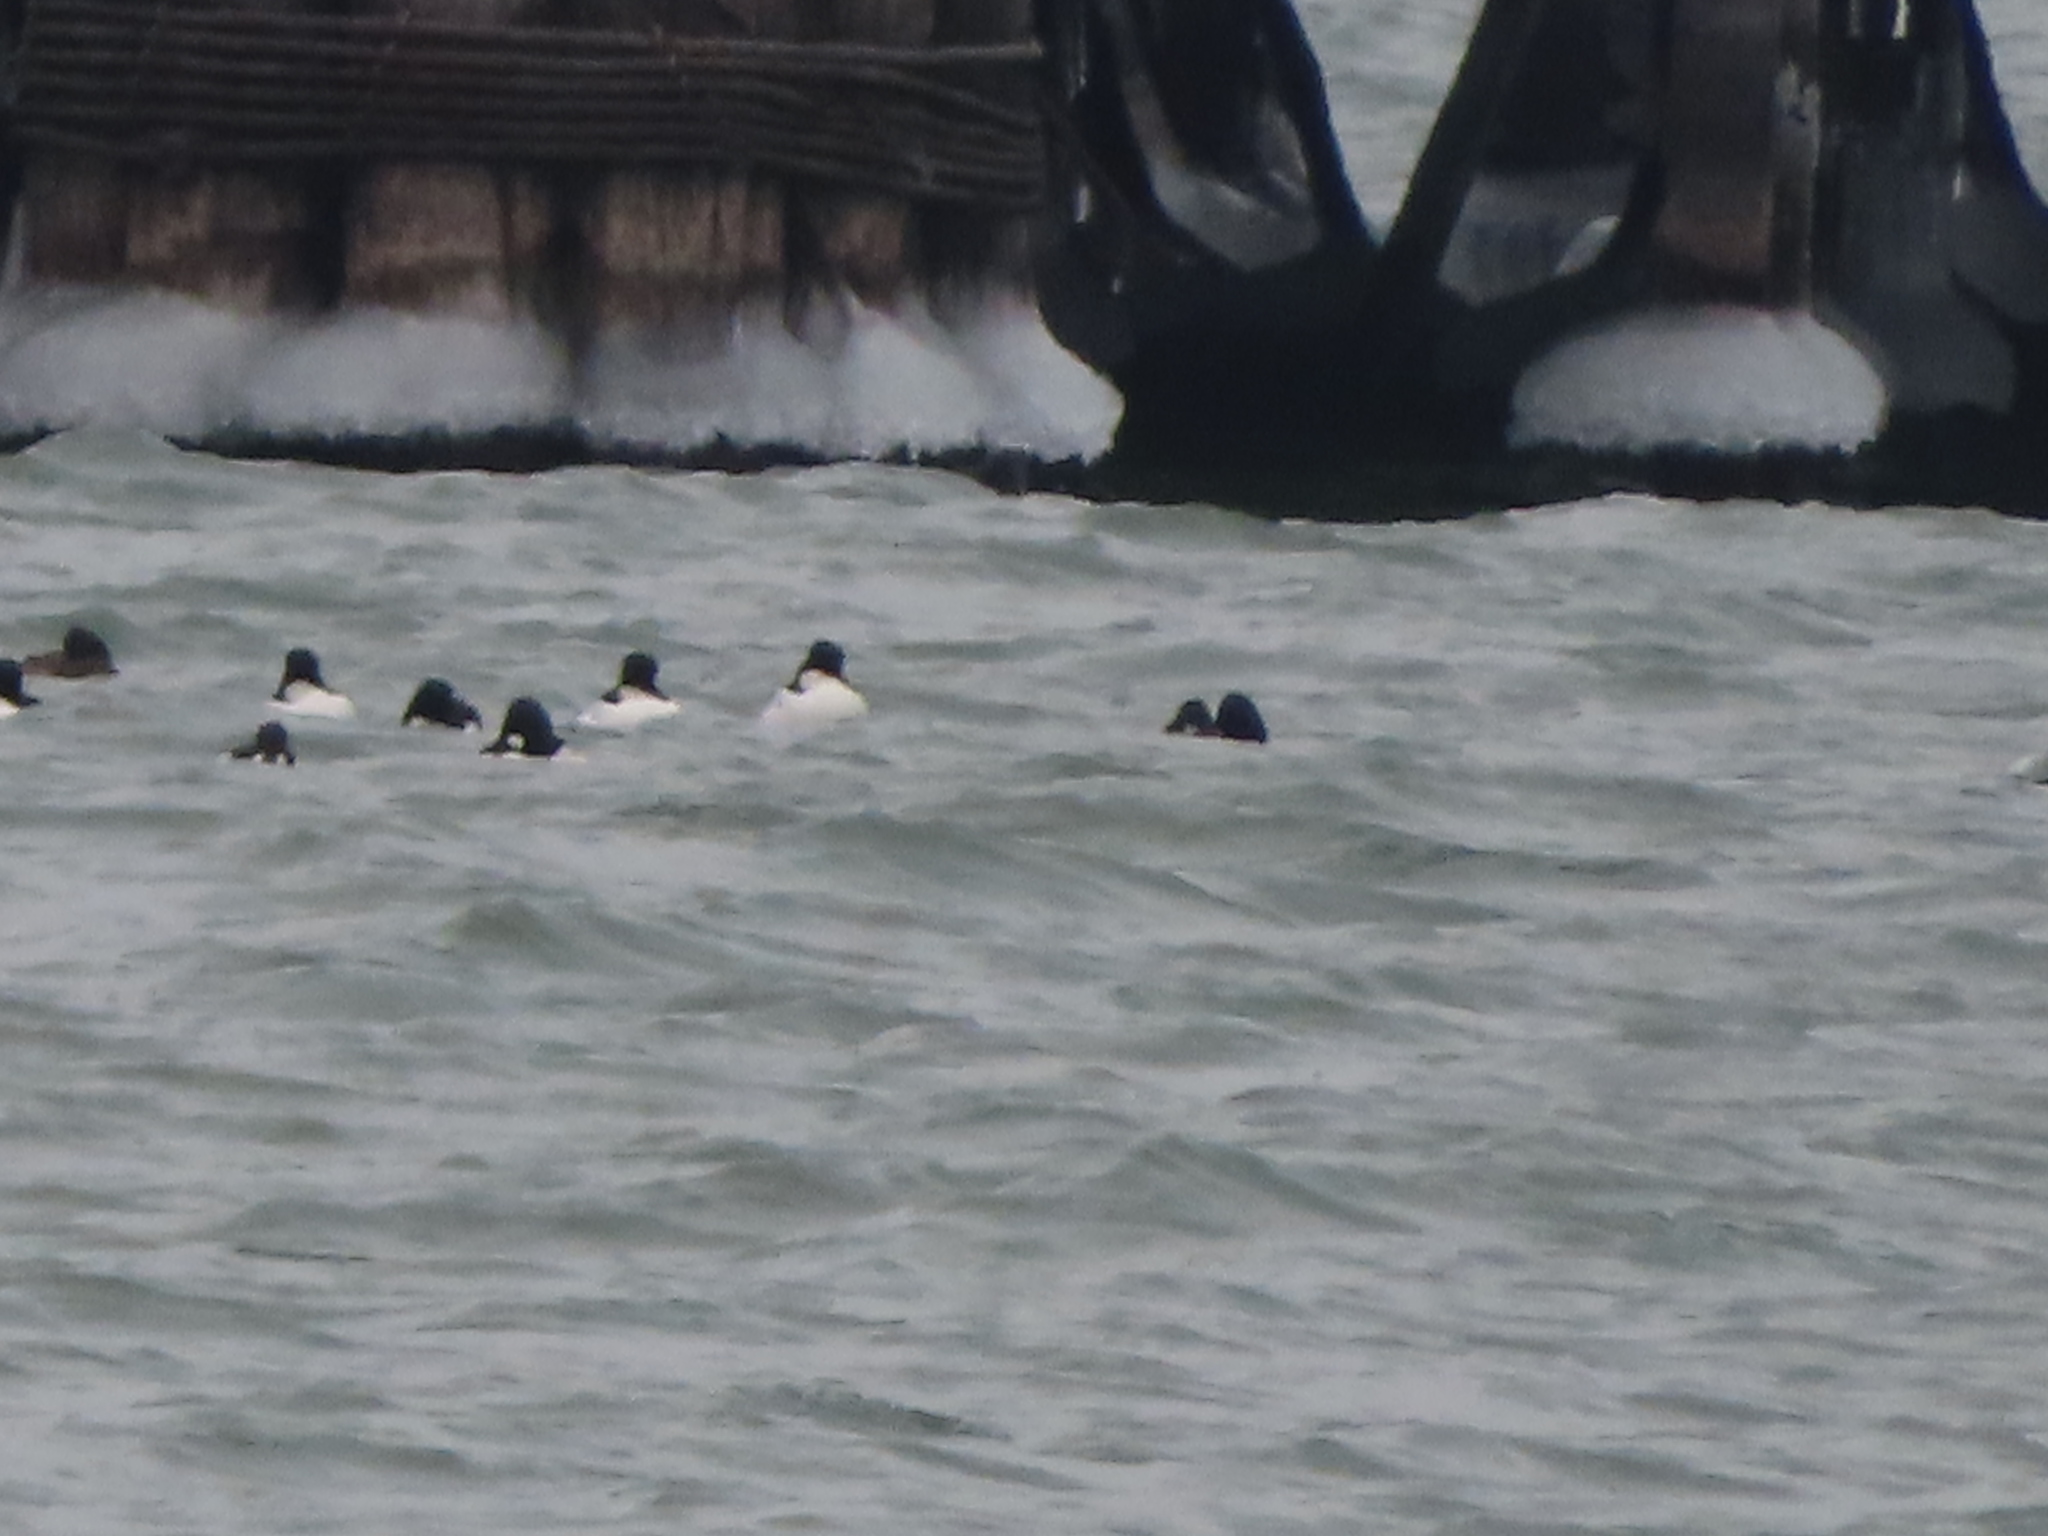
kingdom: Animalia
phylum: Chordata
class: Aves
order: Anseriformes
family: Anatidae
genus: Bucephala
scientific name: Bucephala clangula
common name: Common goldeneye
